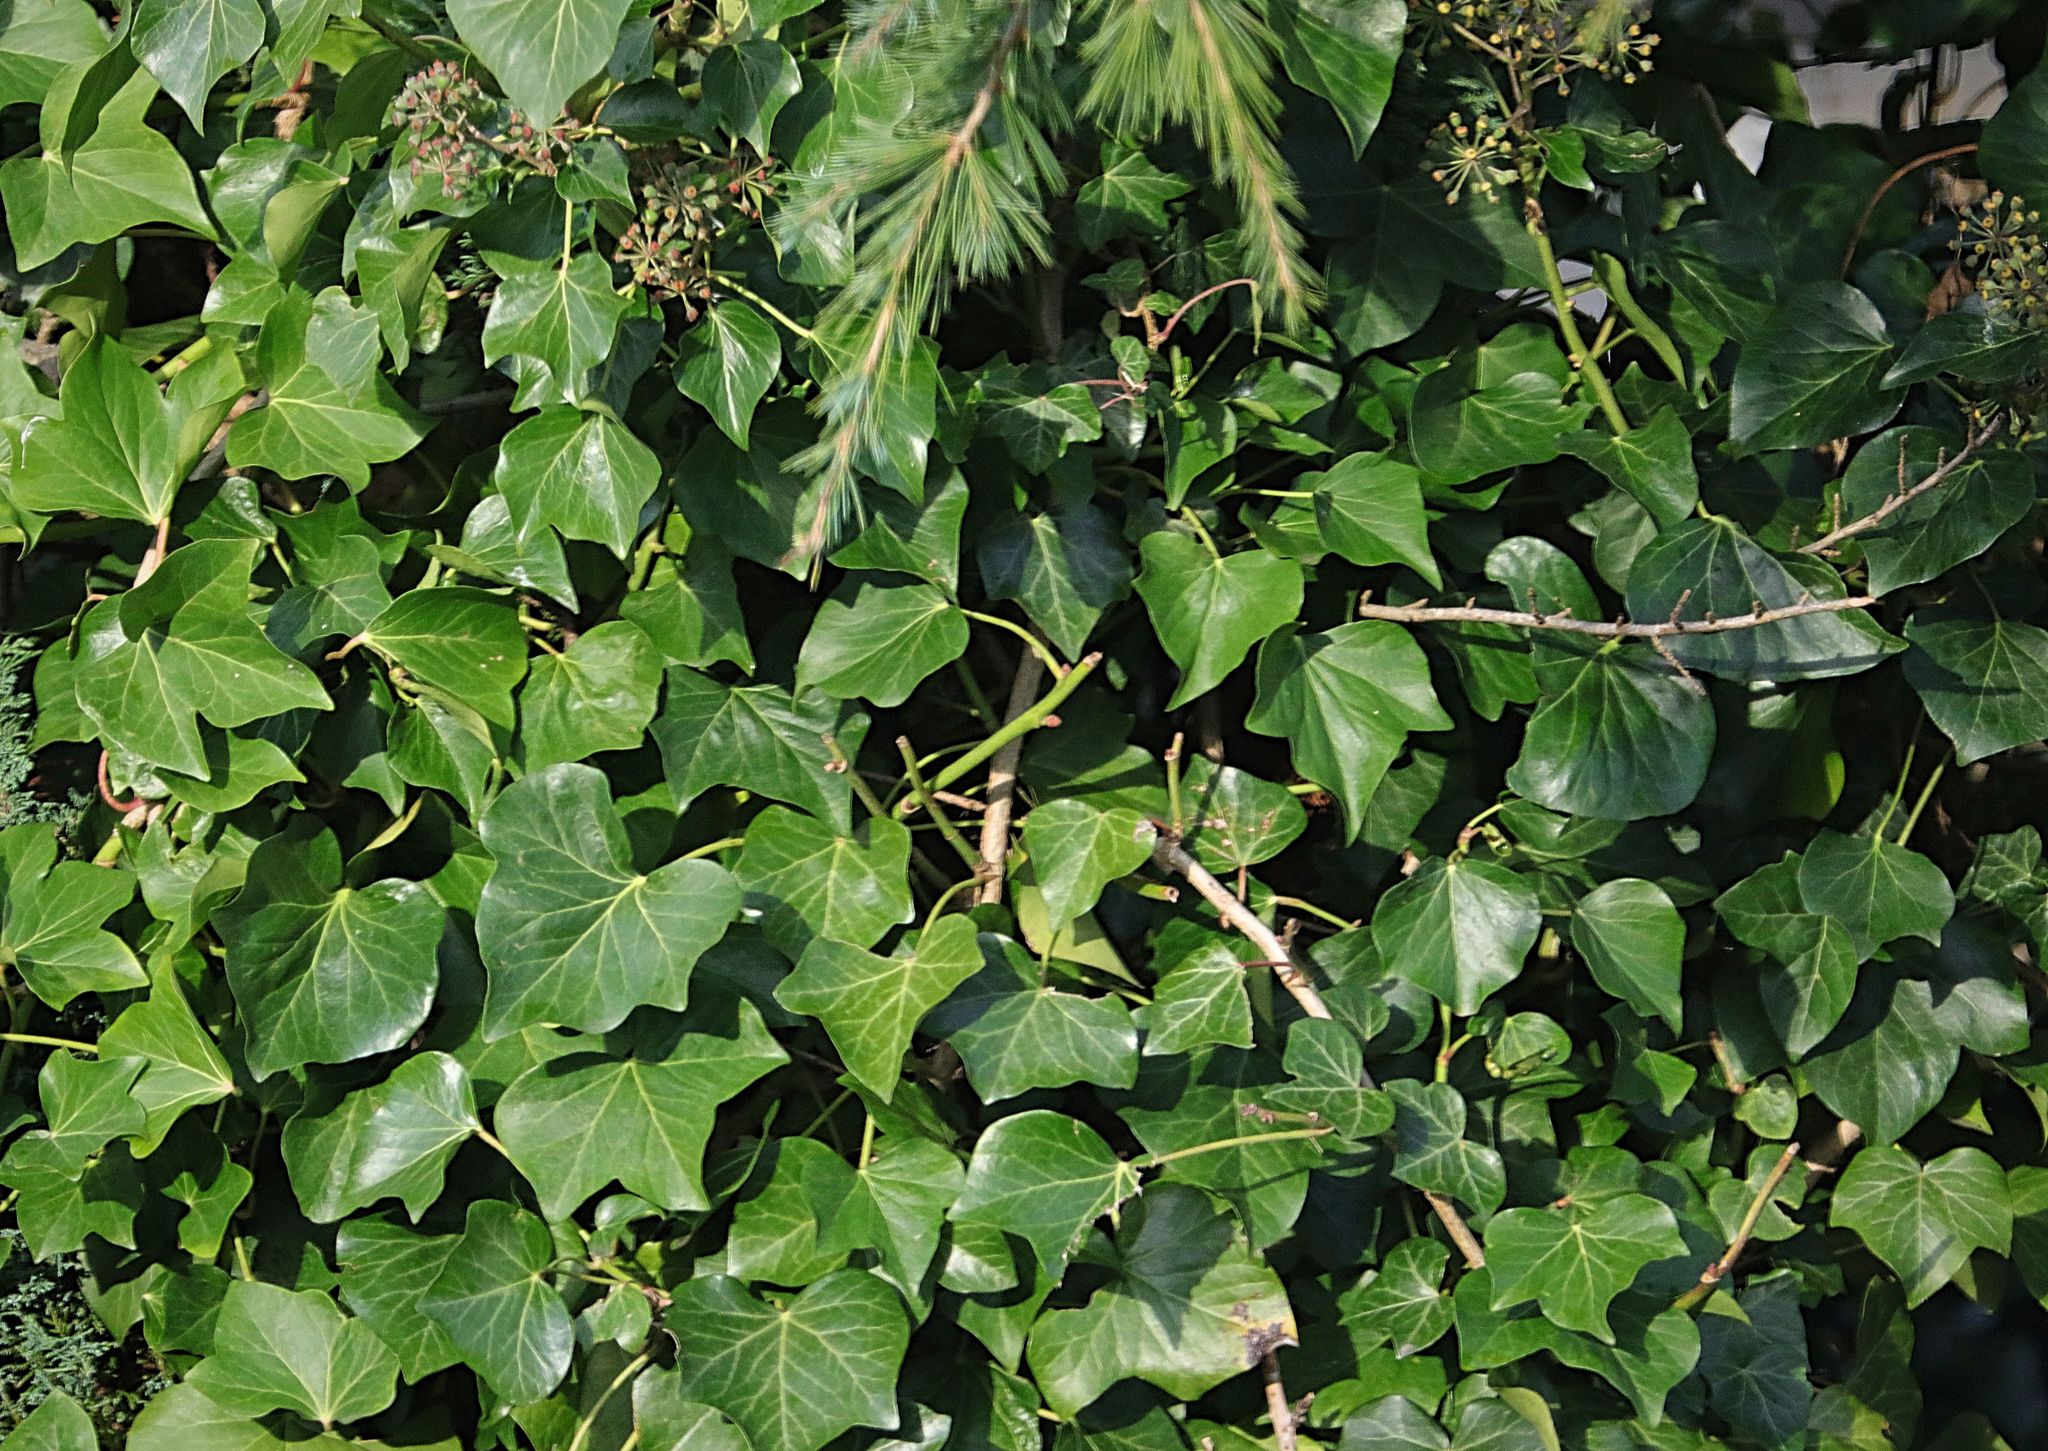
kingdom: Plantae
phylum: Tracheophyta
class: Magnoliopsida
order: Apiales
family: Araliaceae
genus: Hedera
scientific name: Hedera helix
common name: Ivy
